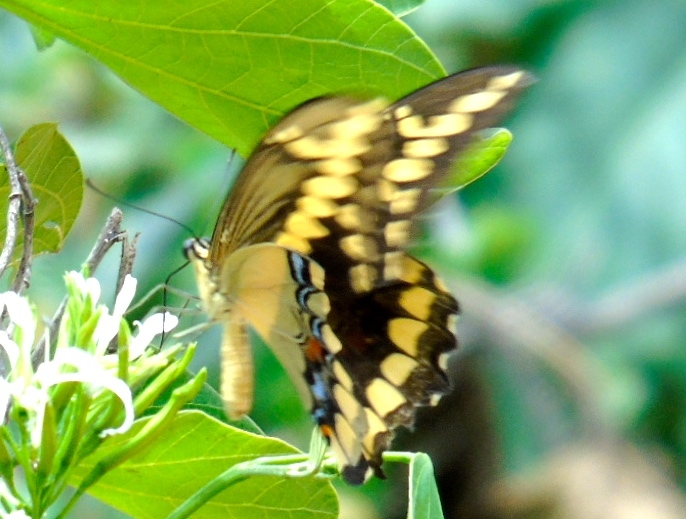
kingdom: Animalia
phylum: Arthropoda
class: Insecta
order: Lepidoptera
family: Papilionidae
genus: Papilio
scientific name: Papilio rumiko
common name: Western giant swallowtail
